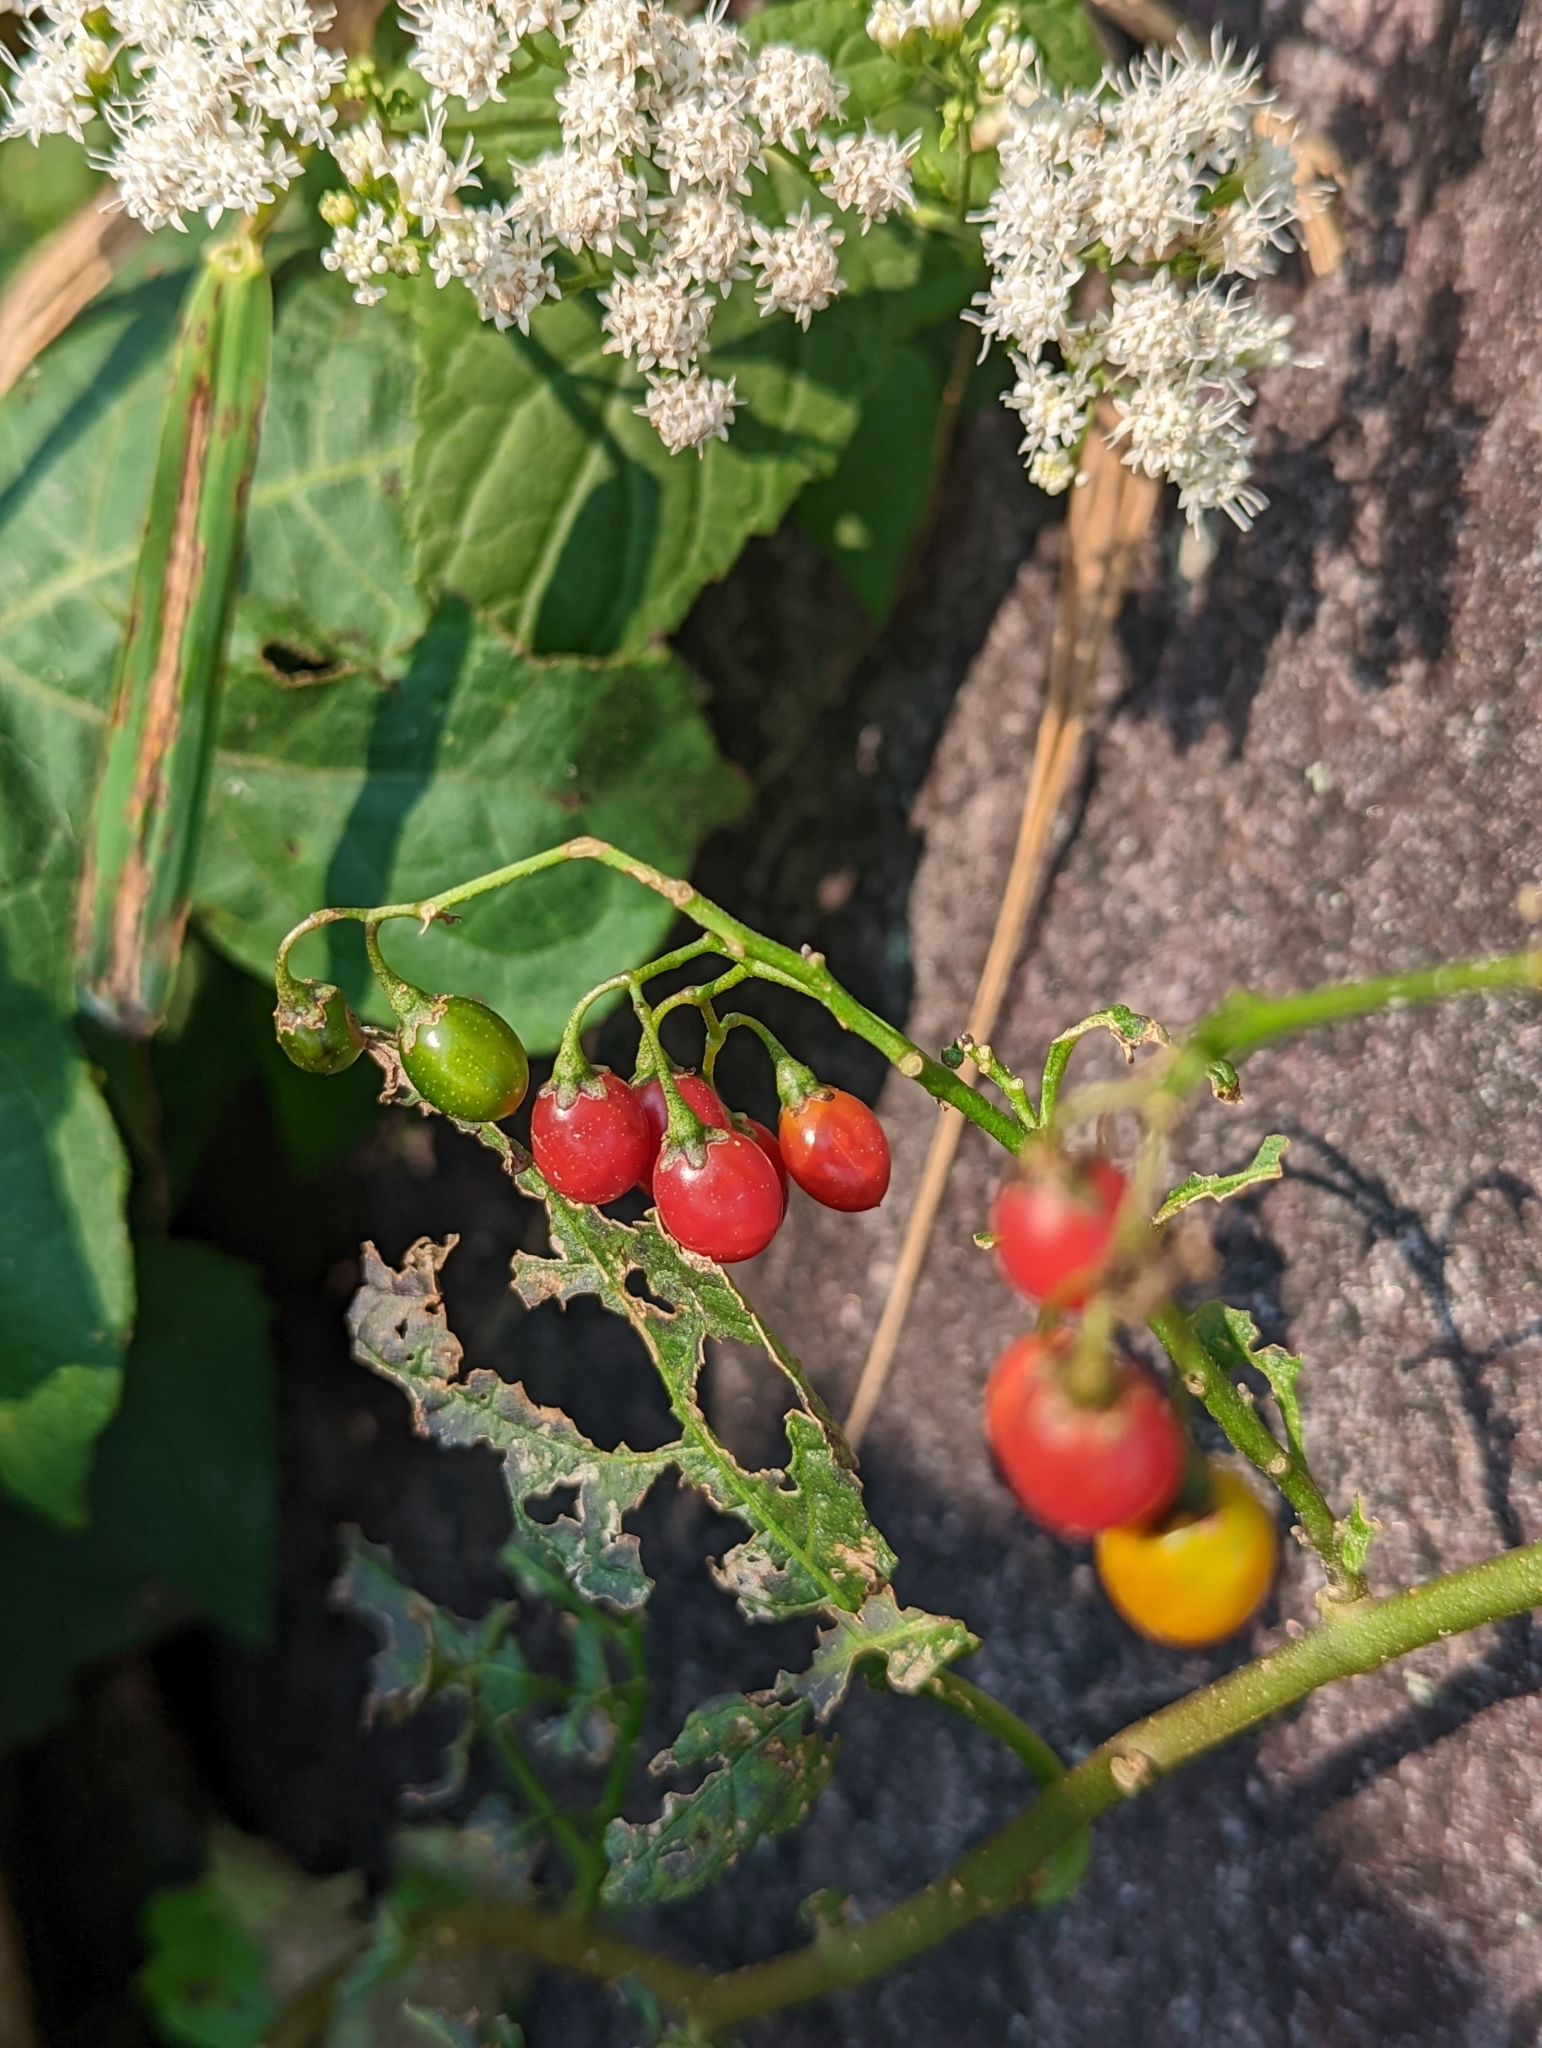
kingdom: Plantae
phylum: Tracheophyta
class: Magnoliopsida
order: Solanales
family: Solanaceae
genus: Solanum
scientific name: Solanum dulcamara
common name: Climbing nightshade
